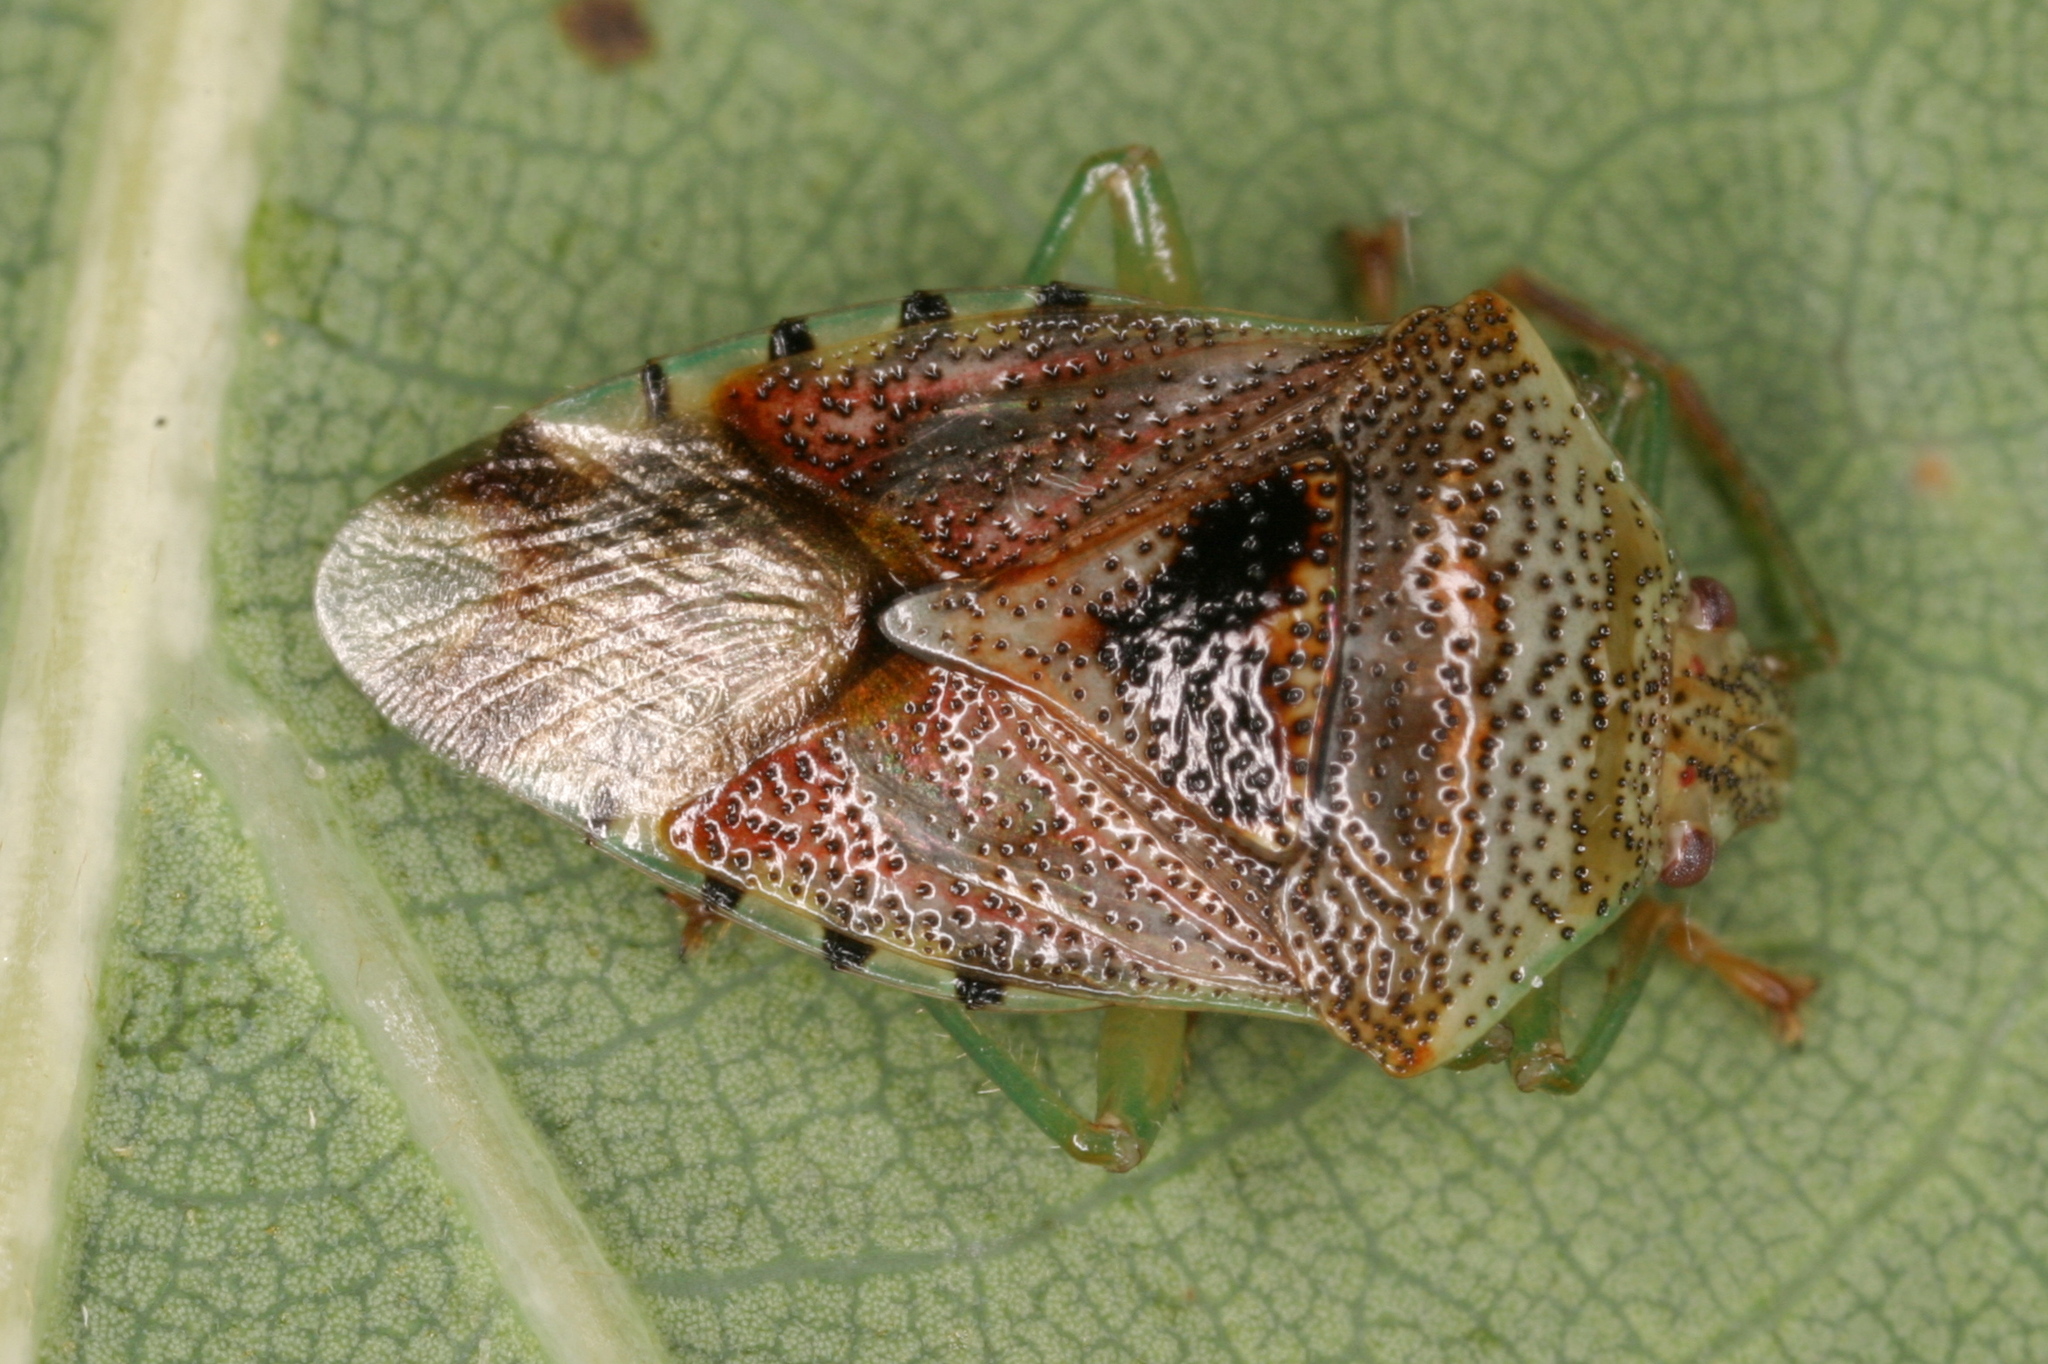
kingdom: Animalia
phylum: Arthropoda
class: Insecta
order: Hemiptera
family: Acanthosomatidae
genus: Elasmucha
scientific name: Elasmucha grisea
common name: Parent bug
